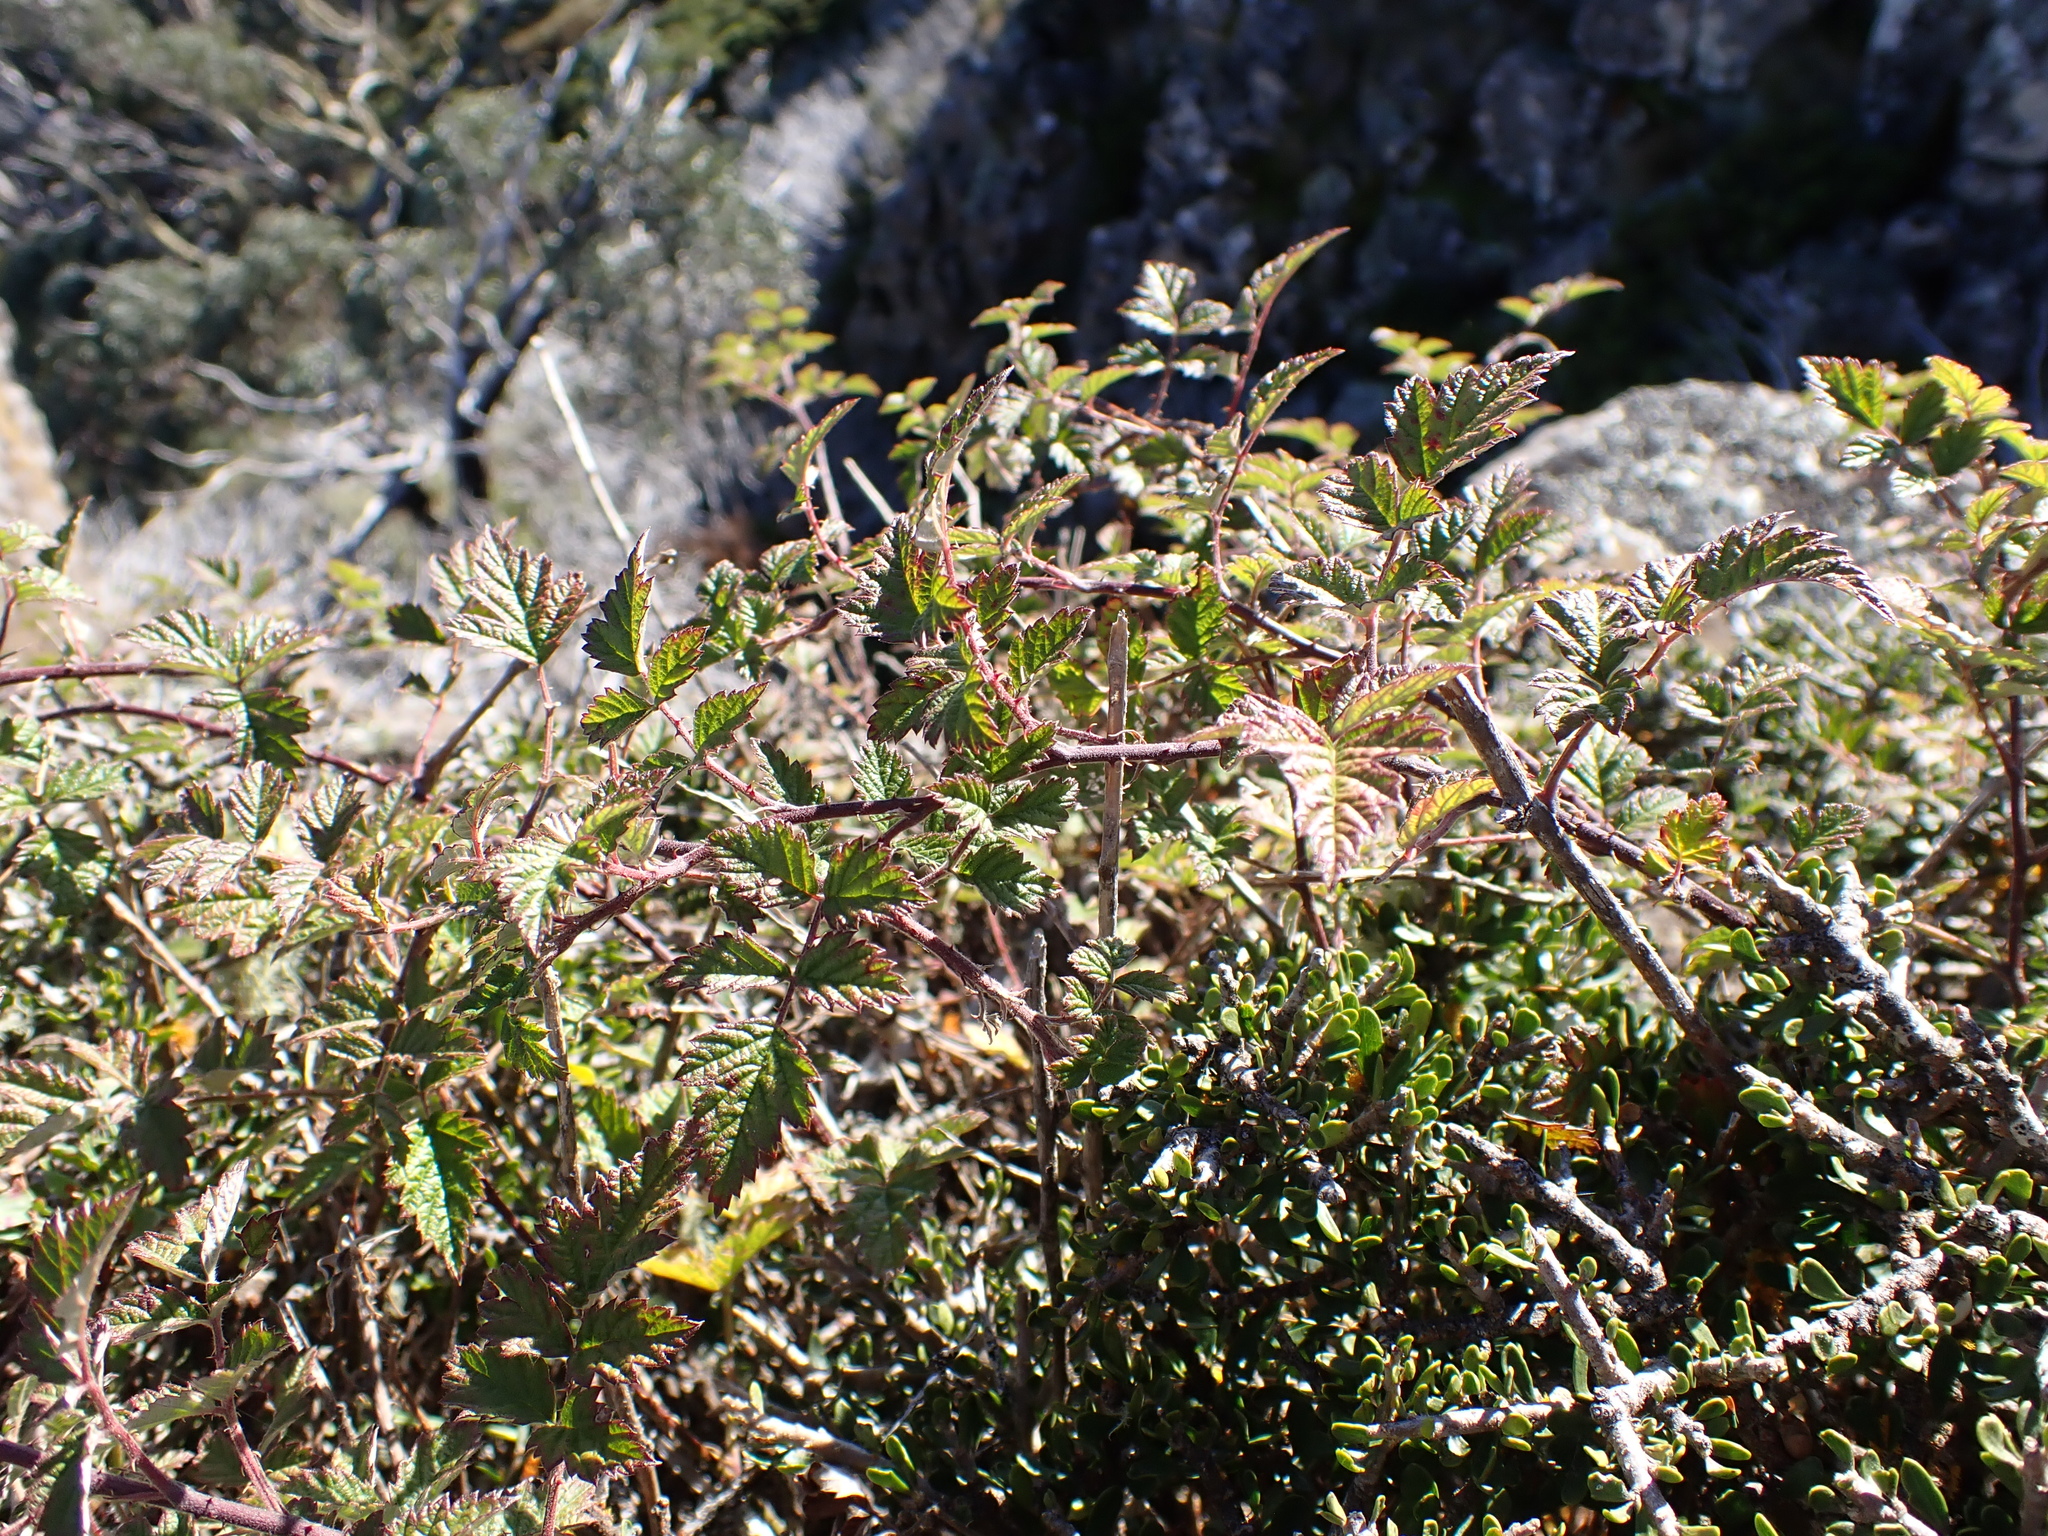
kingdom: Plantae
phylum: Tracheophyta
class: Magnoliopsida
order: Rosales
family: Rosaceae
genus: Rubus
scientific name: Rubus parvifolius
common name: Threeleaf blackberry
